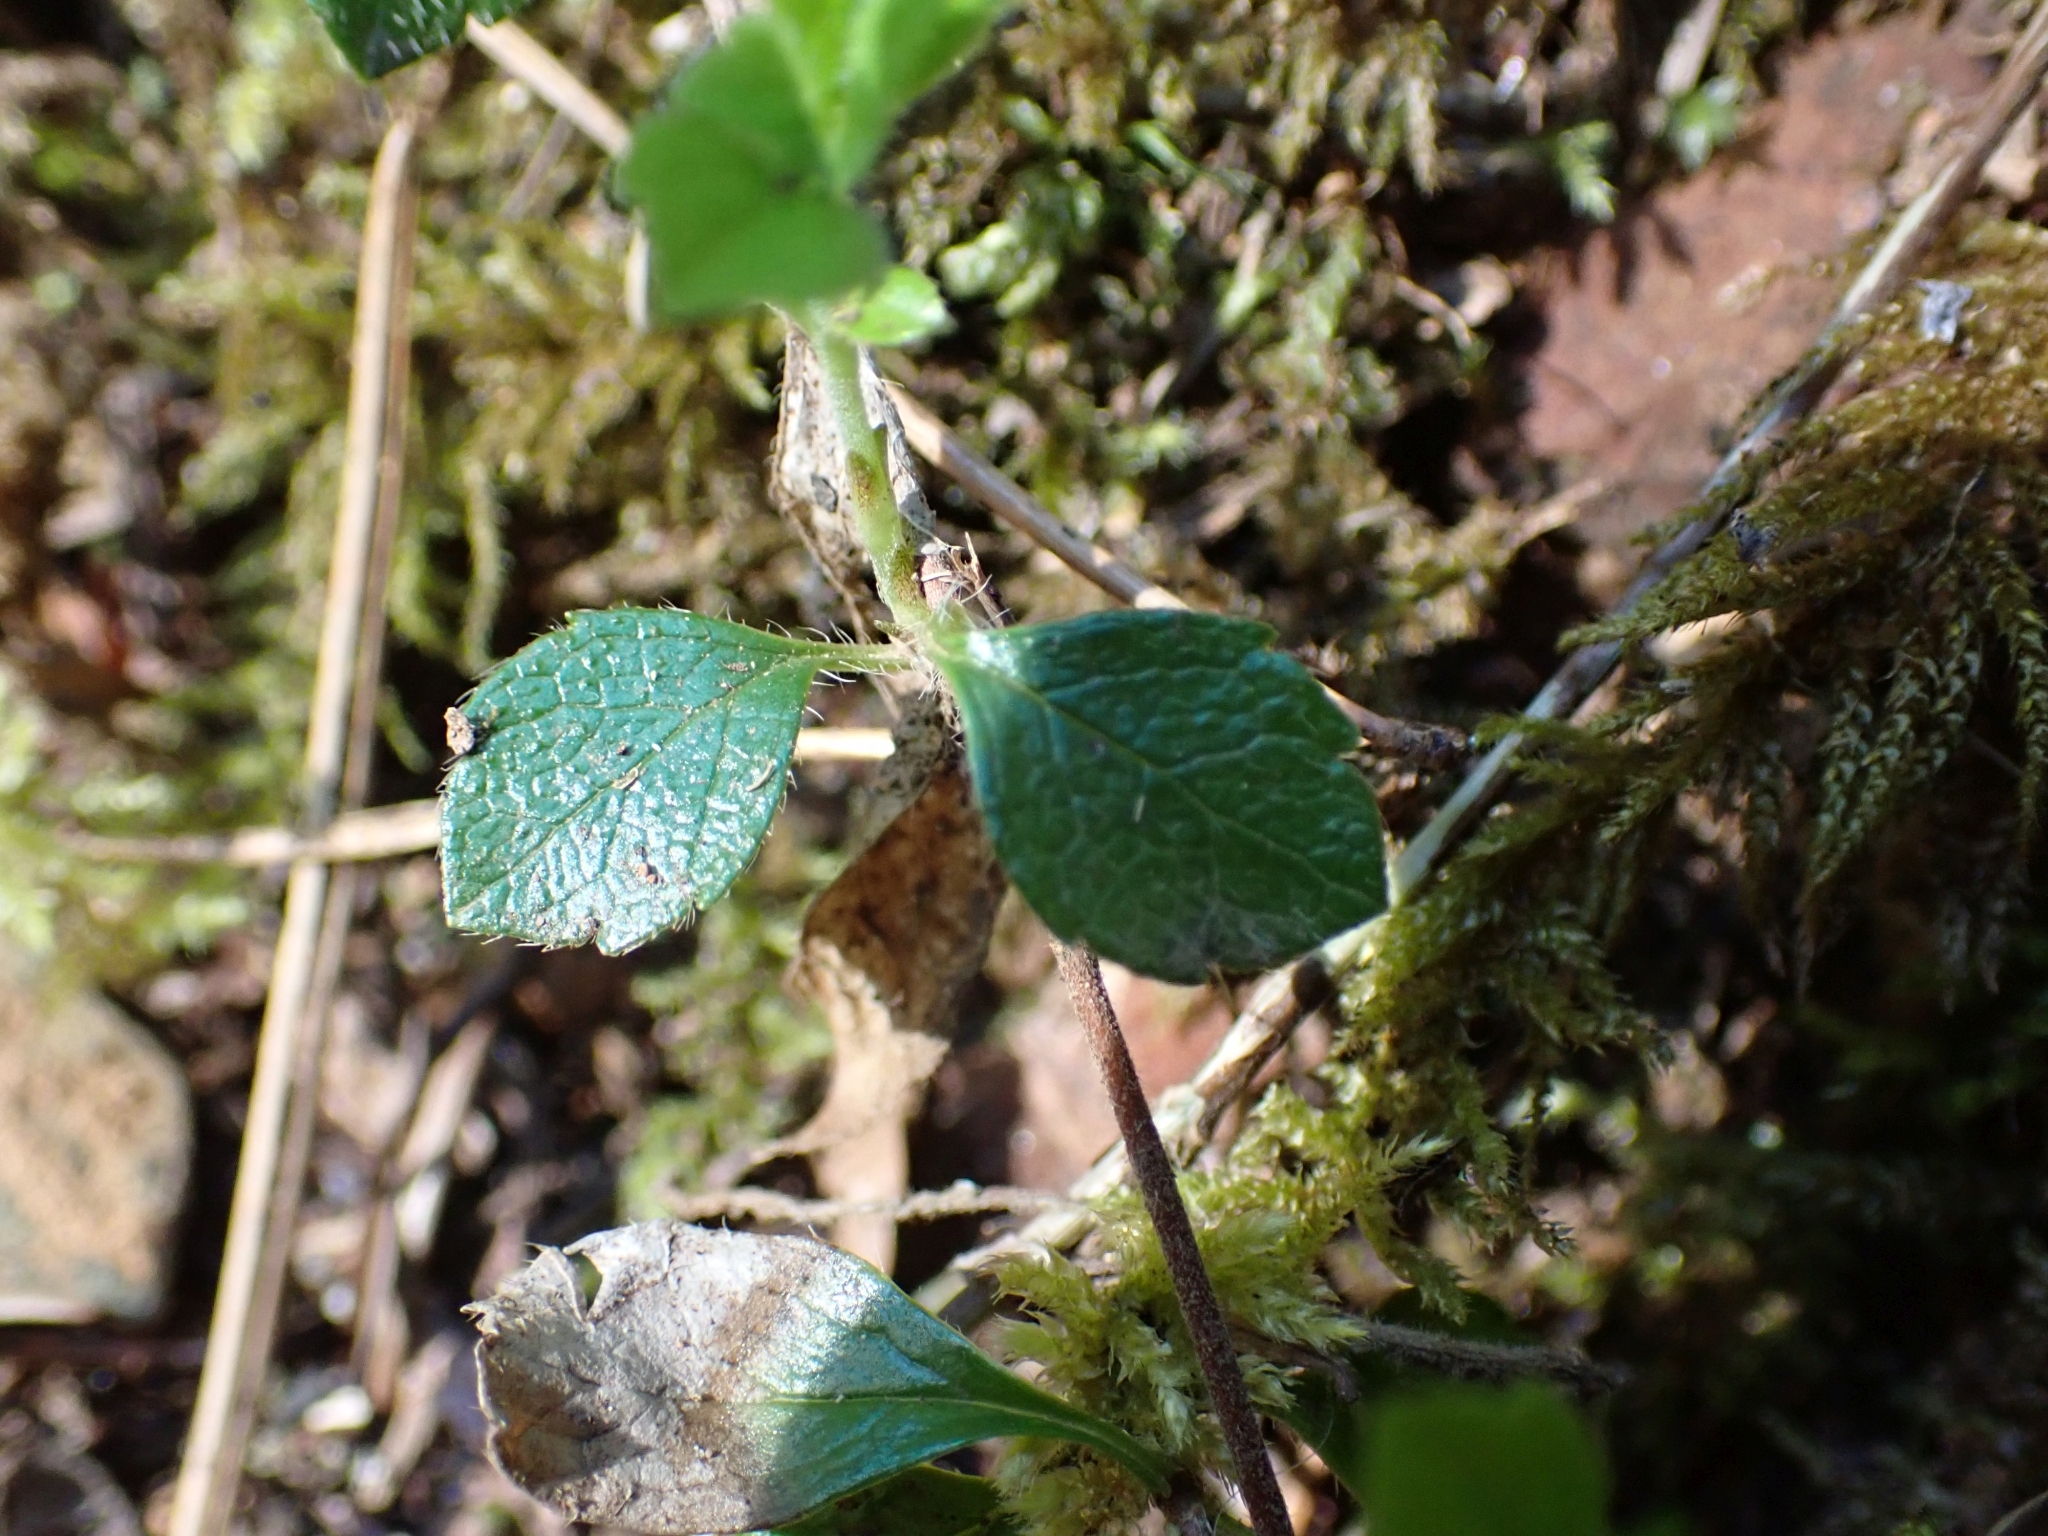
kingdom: Plantae
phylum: Tracheophyta
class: Magnoliopsida
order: Dipsacales
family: Caprifoliaceae
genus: Linnaea
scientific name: Linnaea borealis
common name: Twinflower
